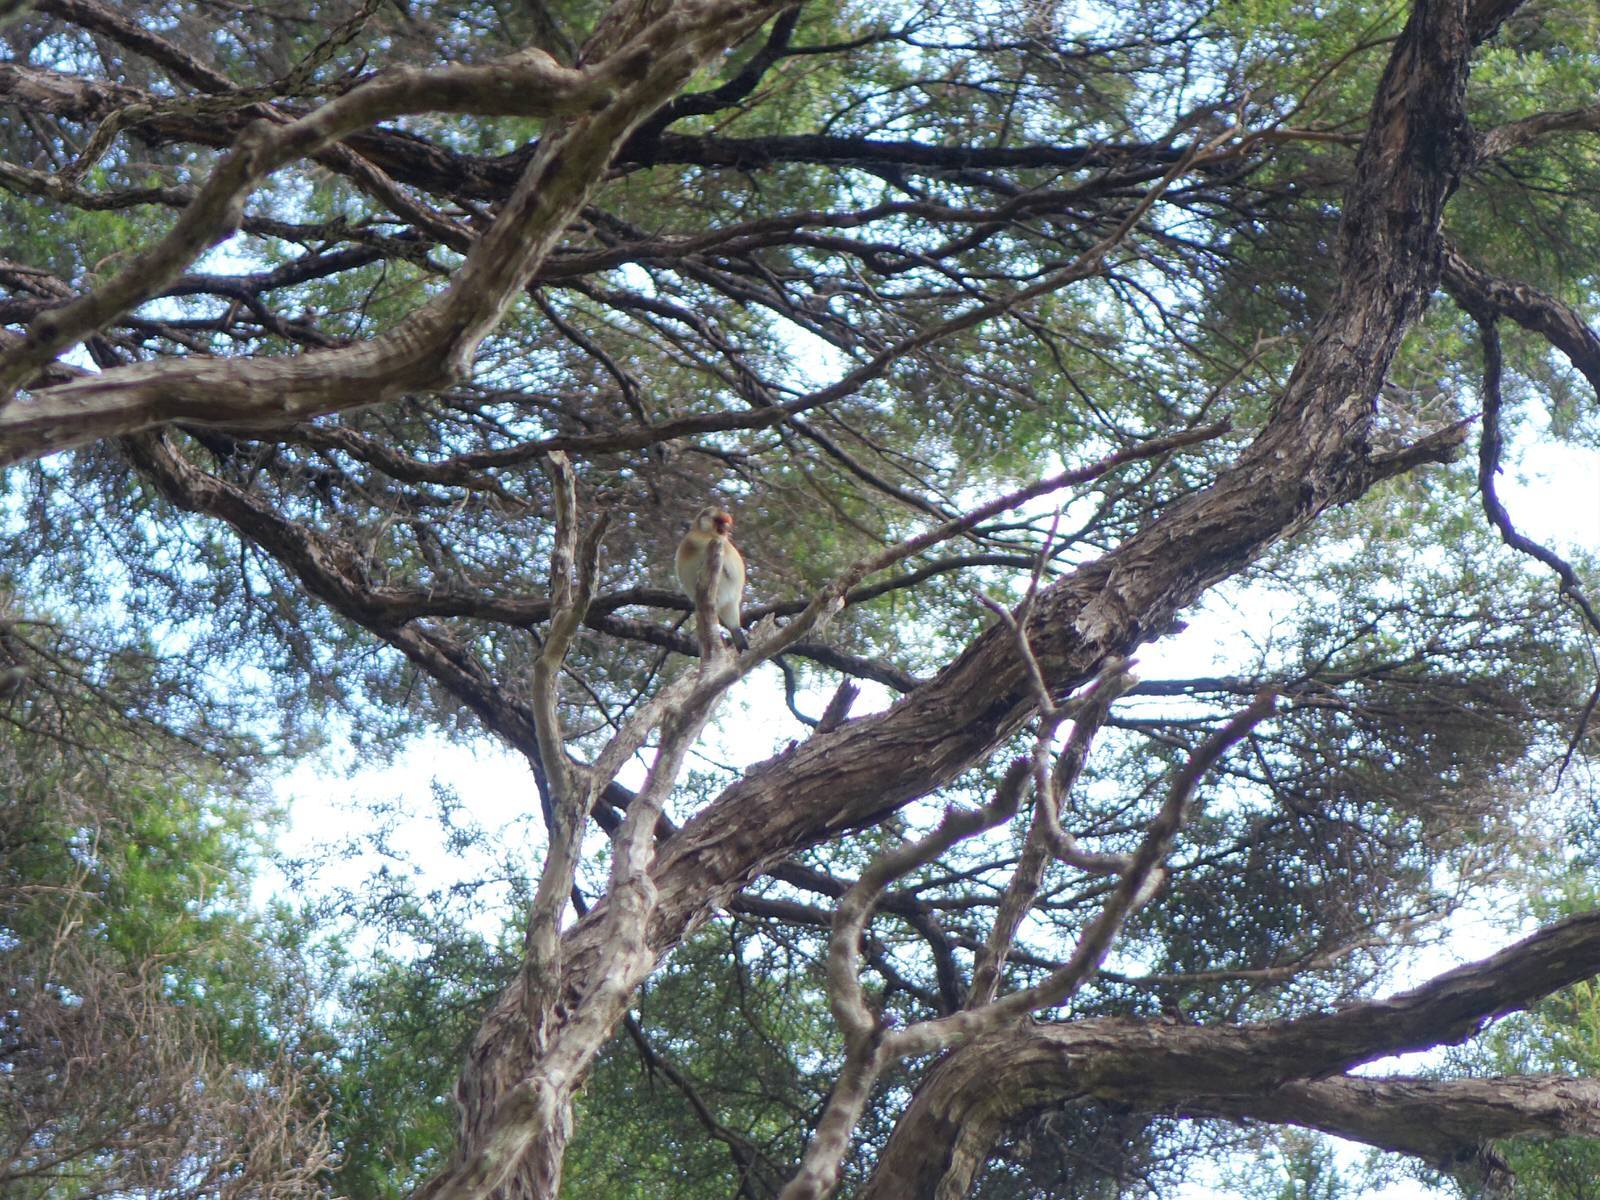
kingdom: Animalia
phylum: Chordata
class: Aves
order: Passeriformes
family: Fringillidae
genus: Carduelis
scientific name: Carduelis carduelis
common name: European goldfinch
